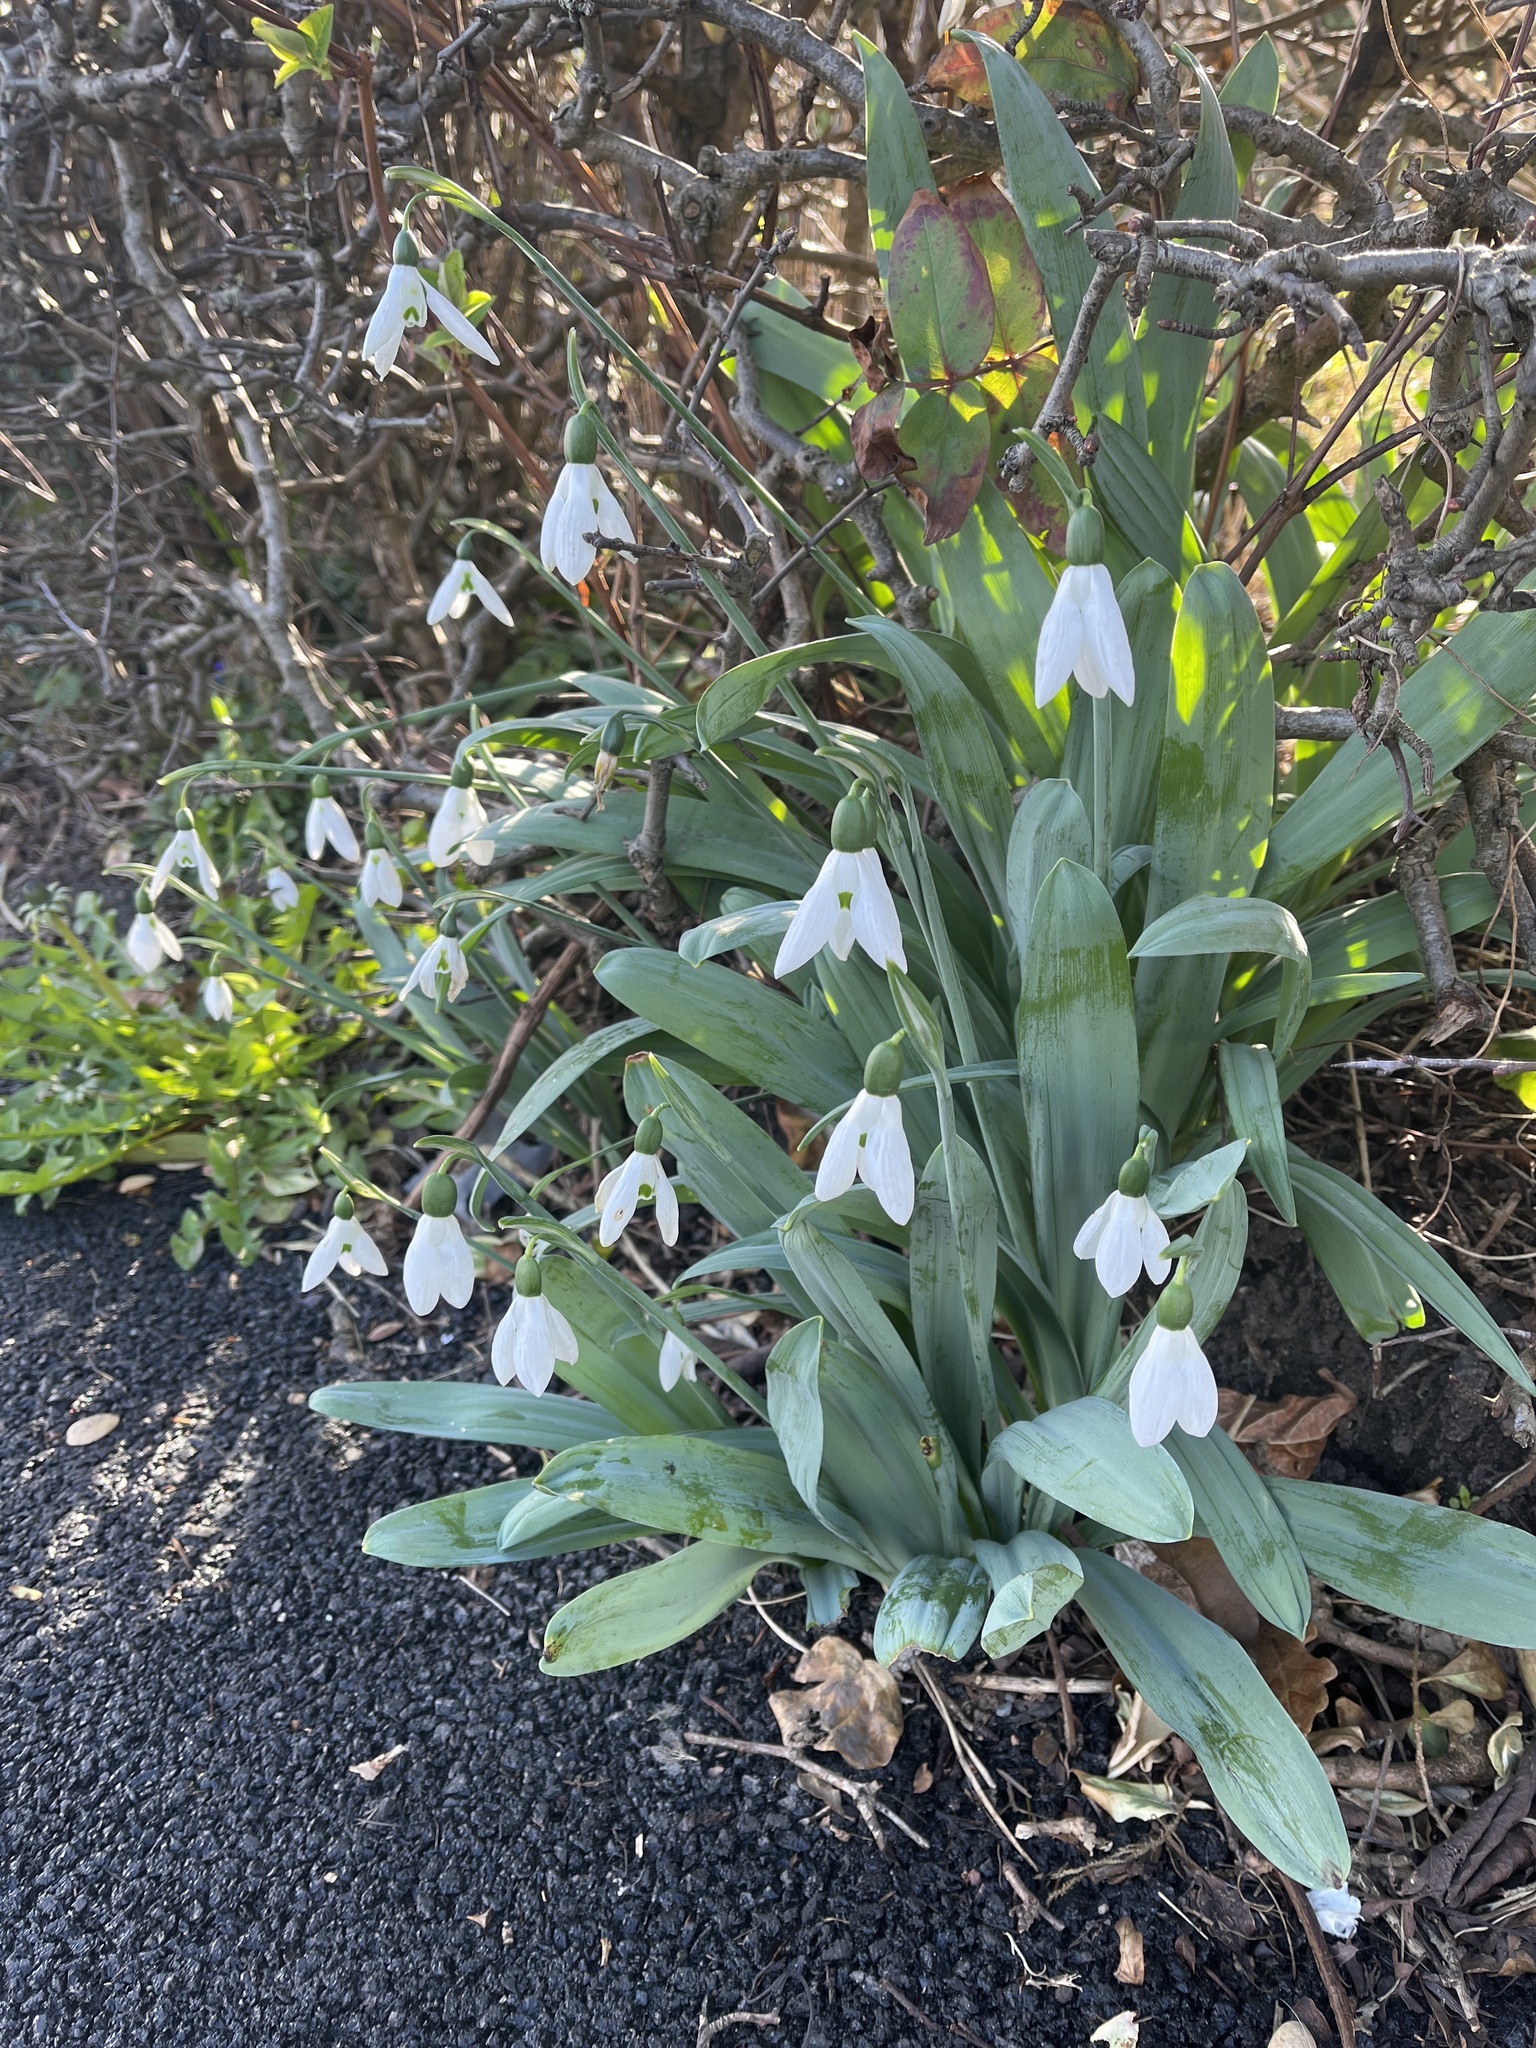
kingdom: Plantae
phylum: Tracheophyta
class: Liliopsida
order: Asparagales
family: Amaryllidaceae
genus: Galanthus
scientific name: Galanthus elwesii
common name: Greater snowdrop
